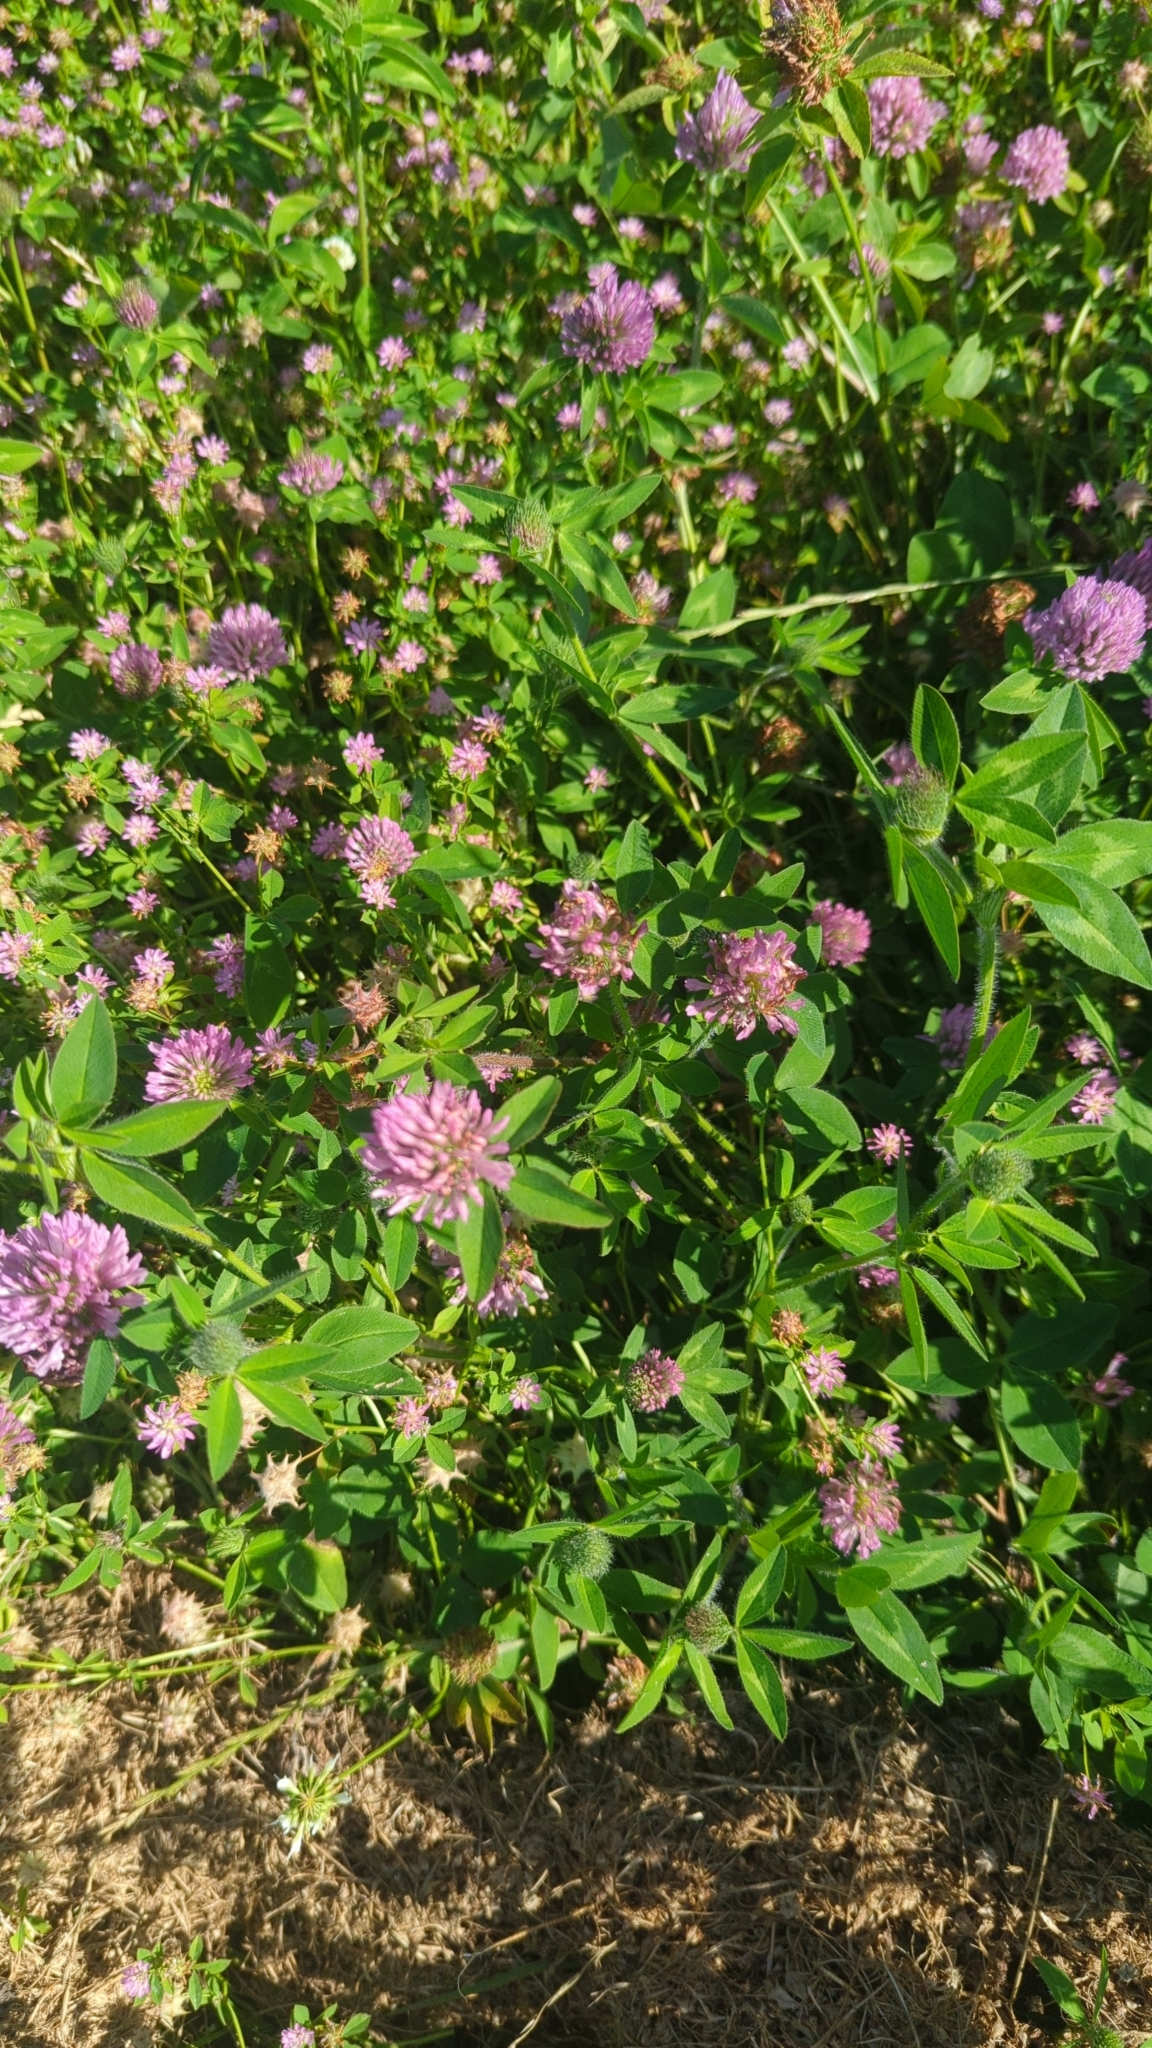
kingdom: Plantae
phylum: Tracheophyta
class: Magnoliopsida
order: Fabales
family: Fabaceae
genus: Trifolium
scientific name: Trifolium pratense
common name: Red clover
